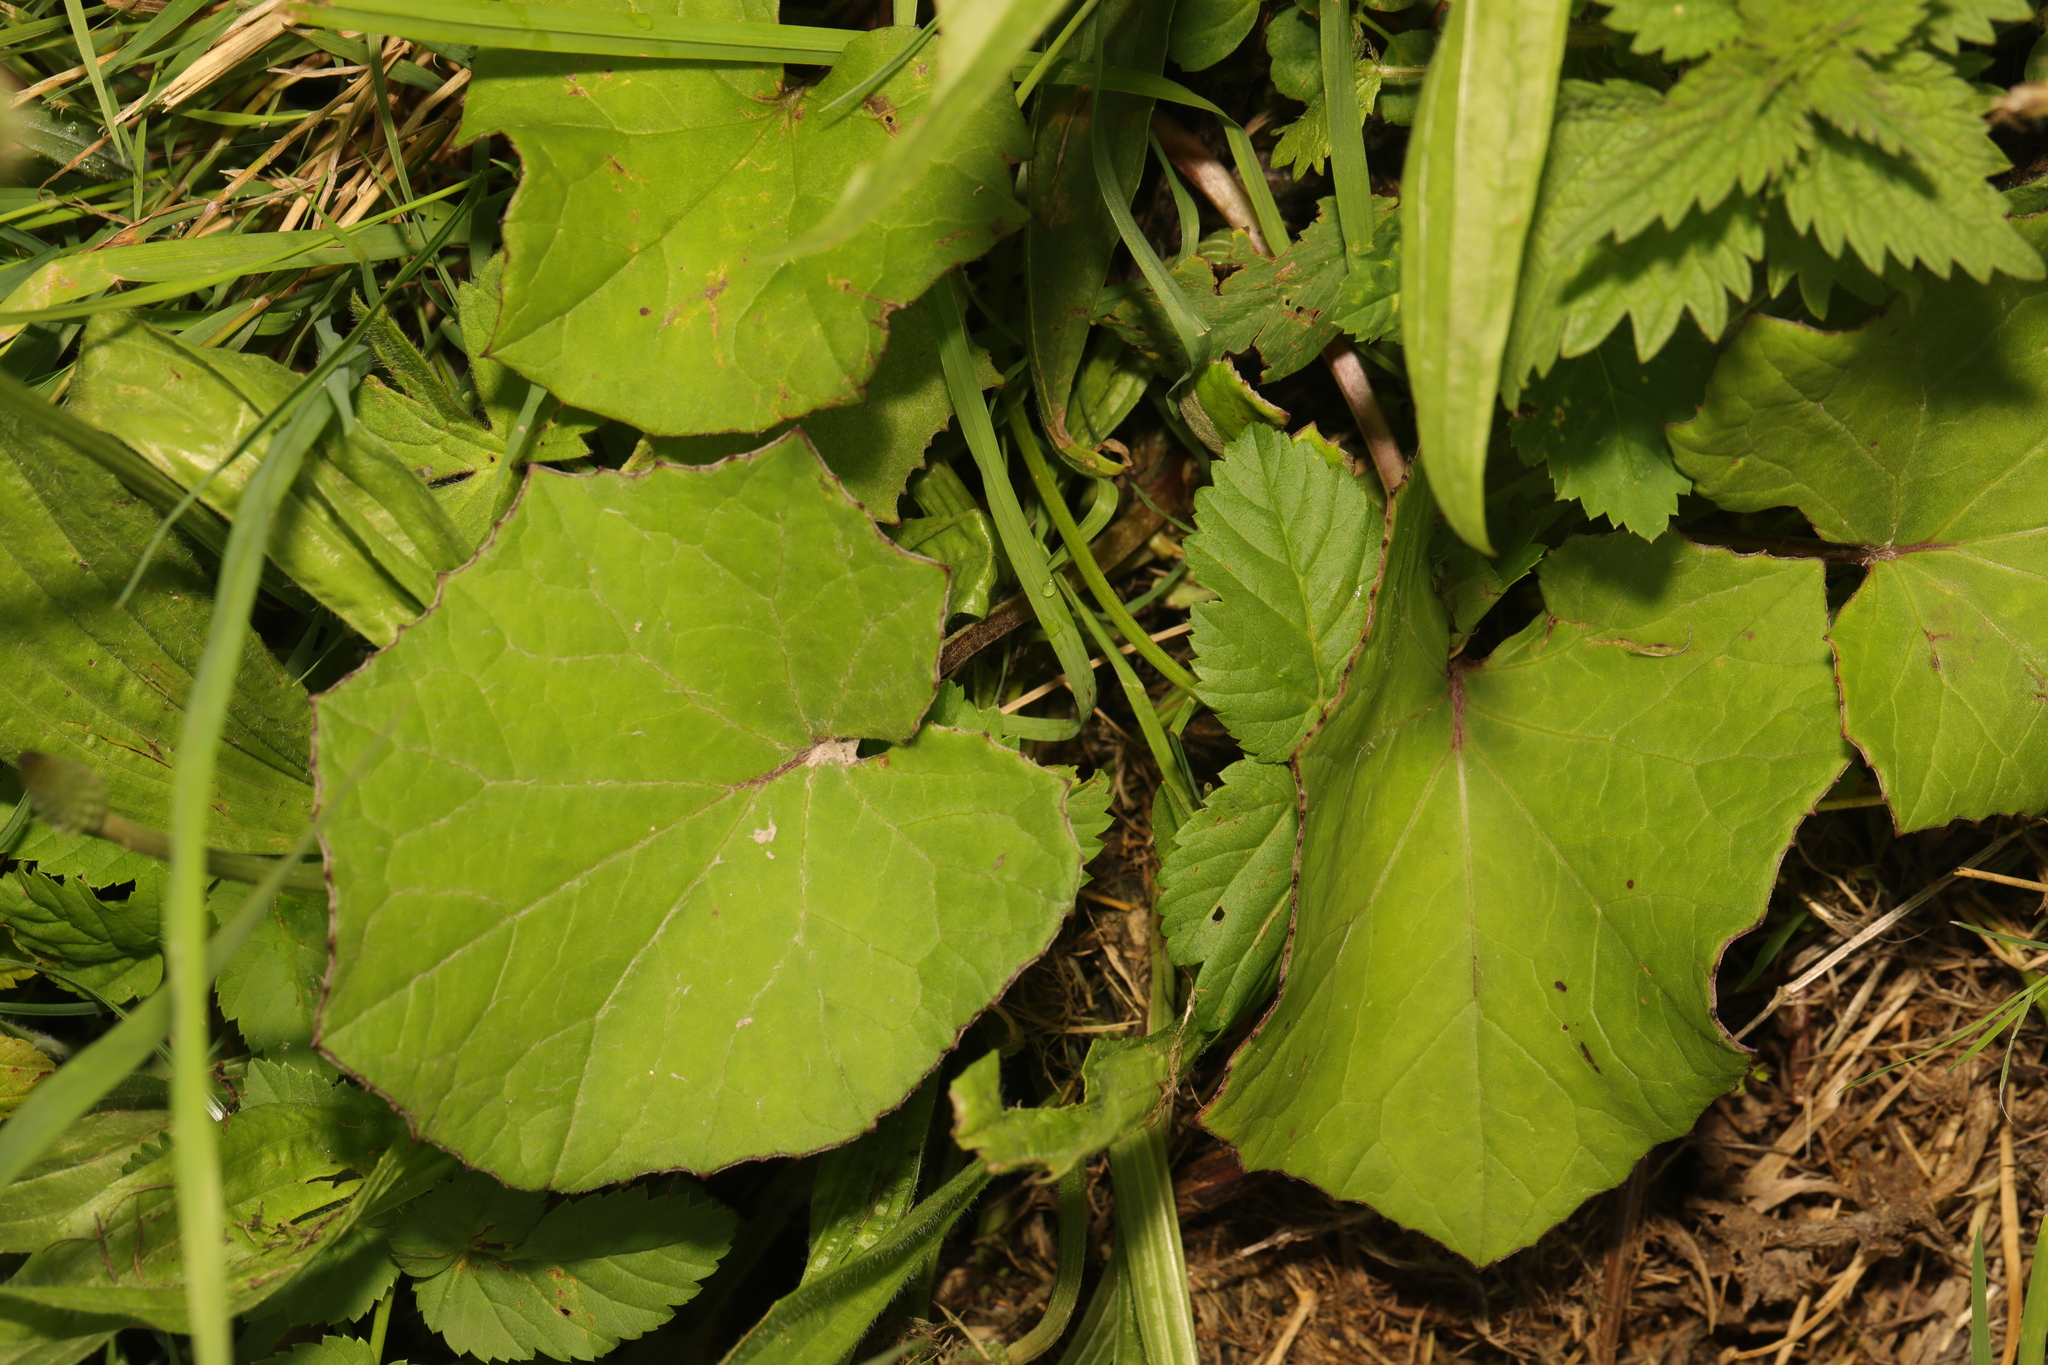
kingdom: Plantae
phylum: Tracheophyta
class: Magnoliopsida
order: Asterales
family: Asteraceae
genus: Tussilago
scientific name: Tussilago farfara
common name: Coltsfoot
